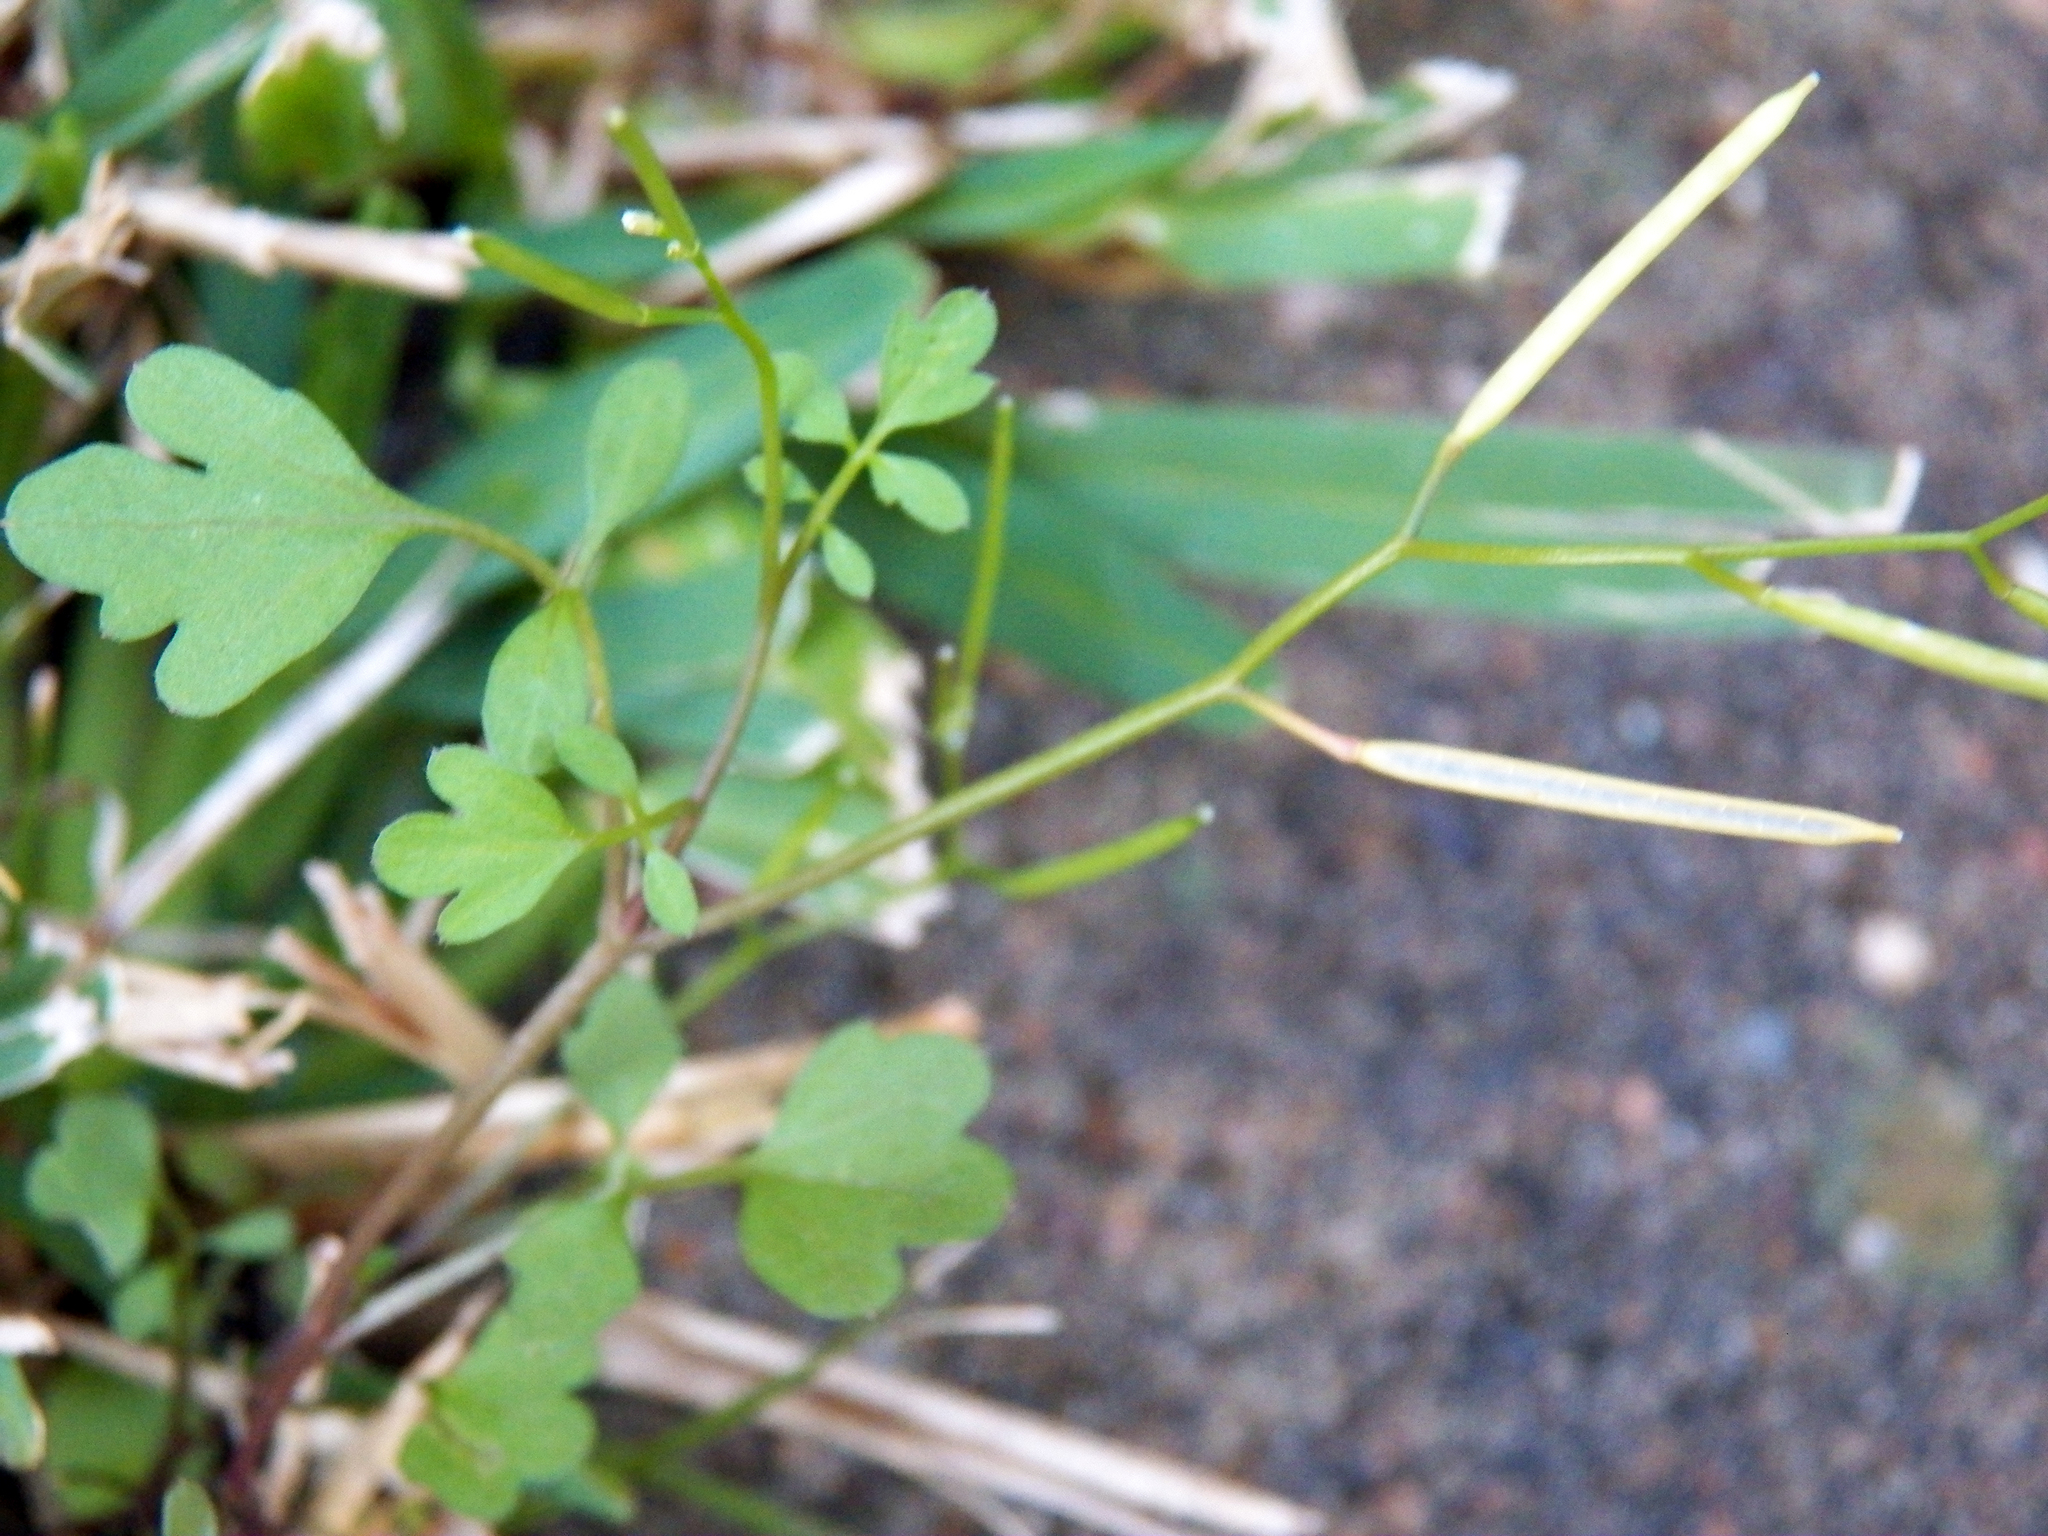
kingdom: Plantae
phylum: Tracheophyta
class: Magnoliopsida
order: Brassicales
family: Brassicaceae
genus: Cardamine
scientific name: Cardamine occulta
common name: Asian wavy bittercress
